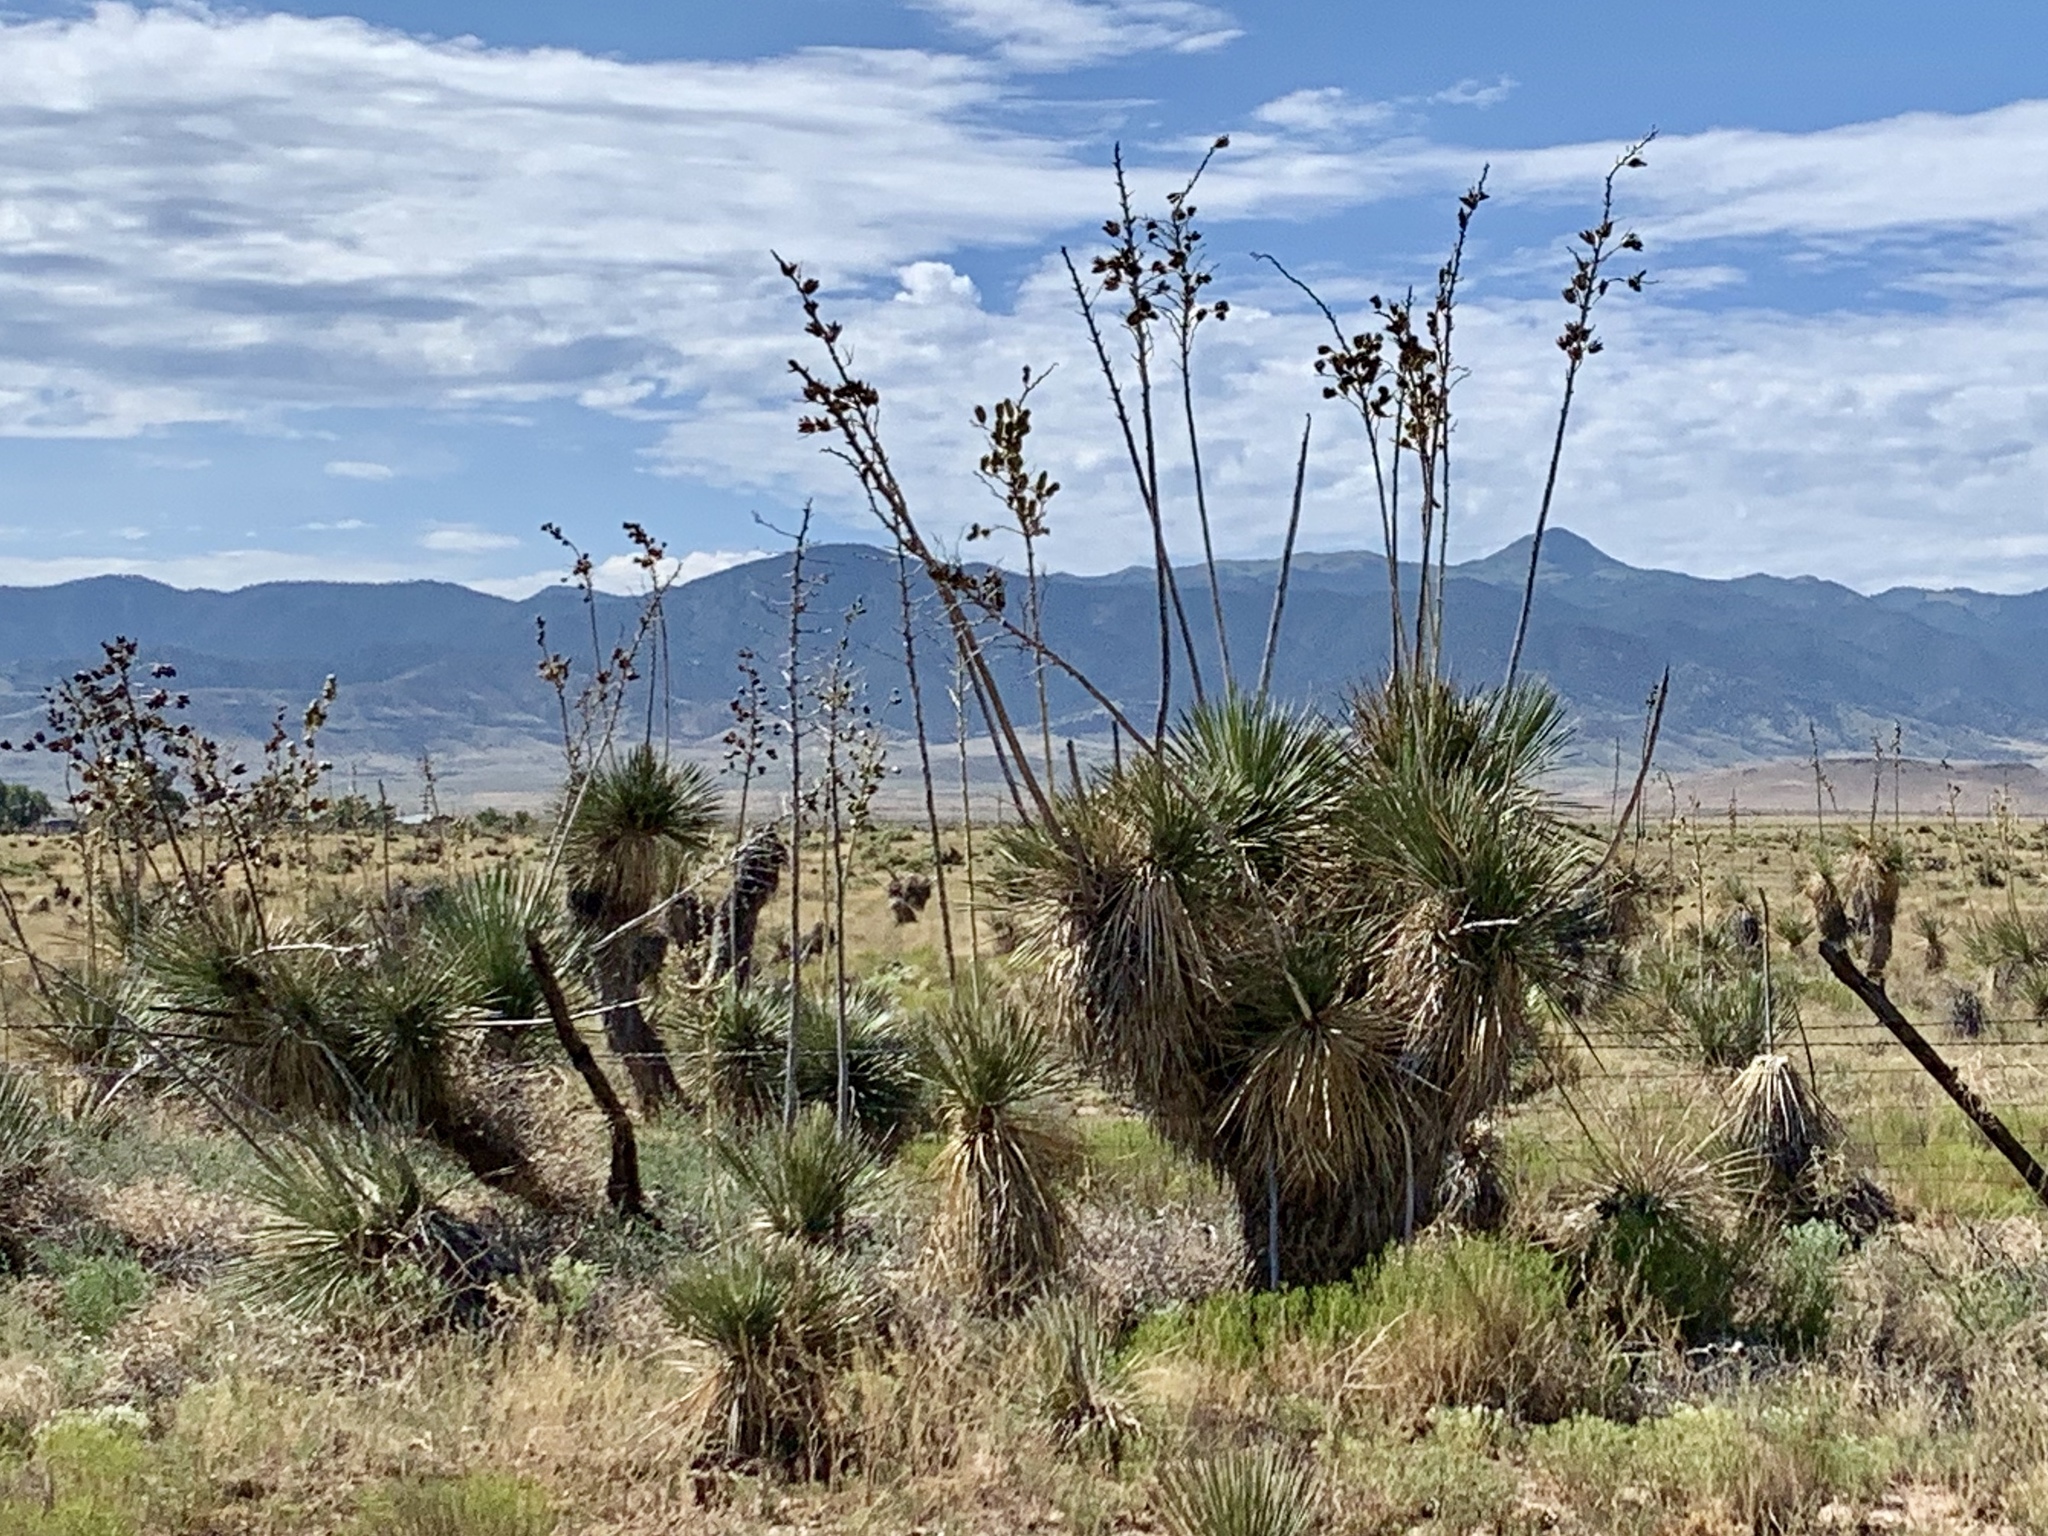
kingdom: Plantae
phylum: Tracheophyta
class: Liliopsida
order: Asparagales
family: Asparagaceae
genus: Yucca
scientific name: Yucca elata
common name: Palmella
